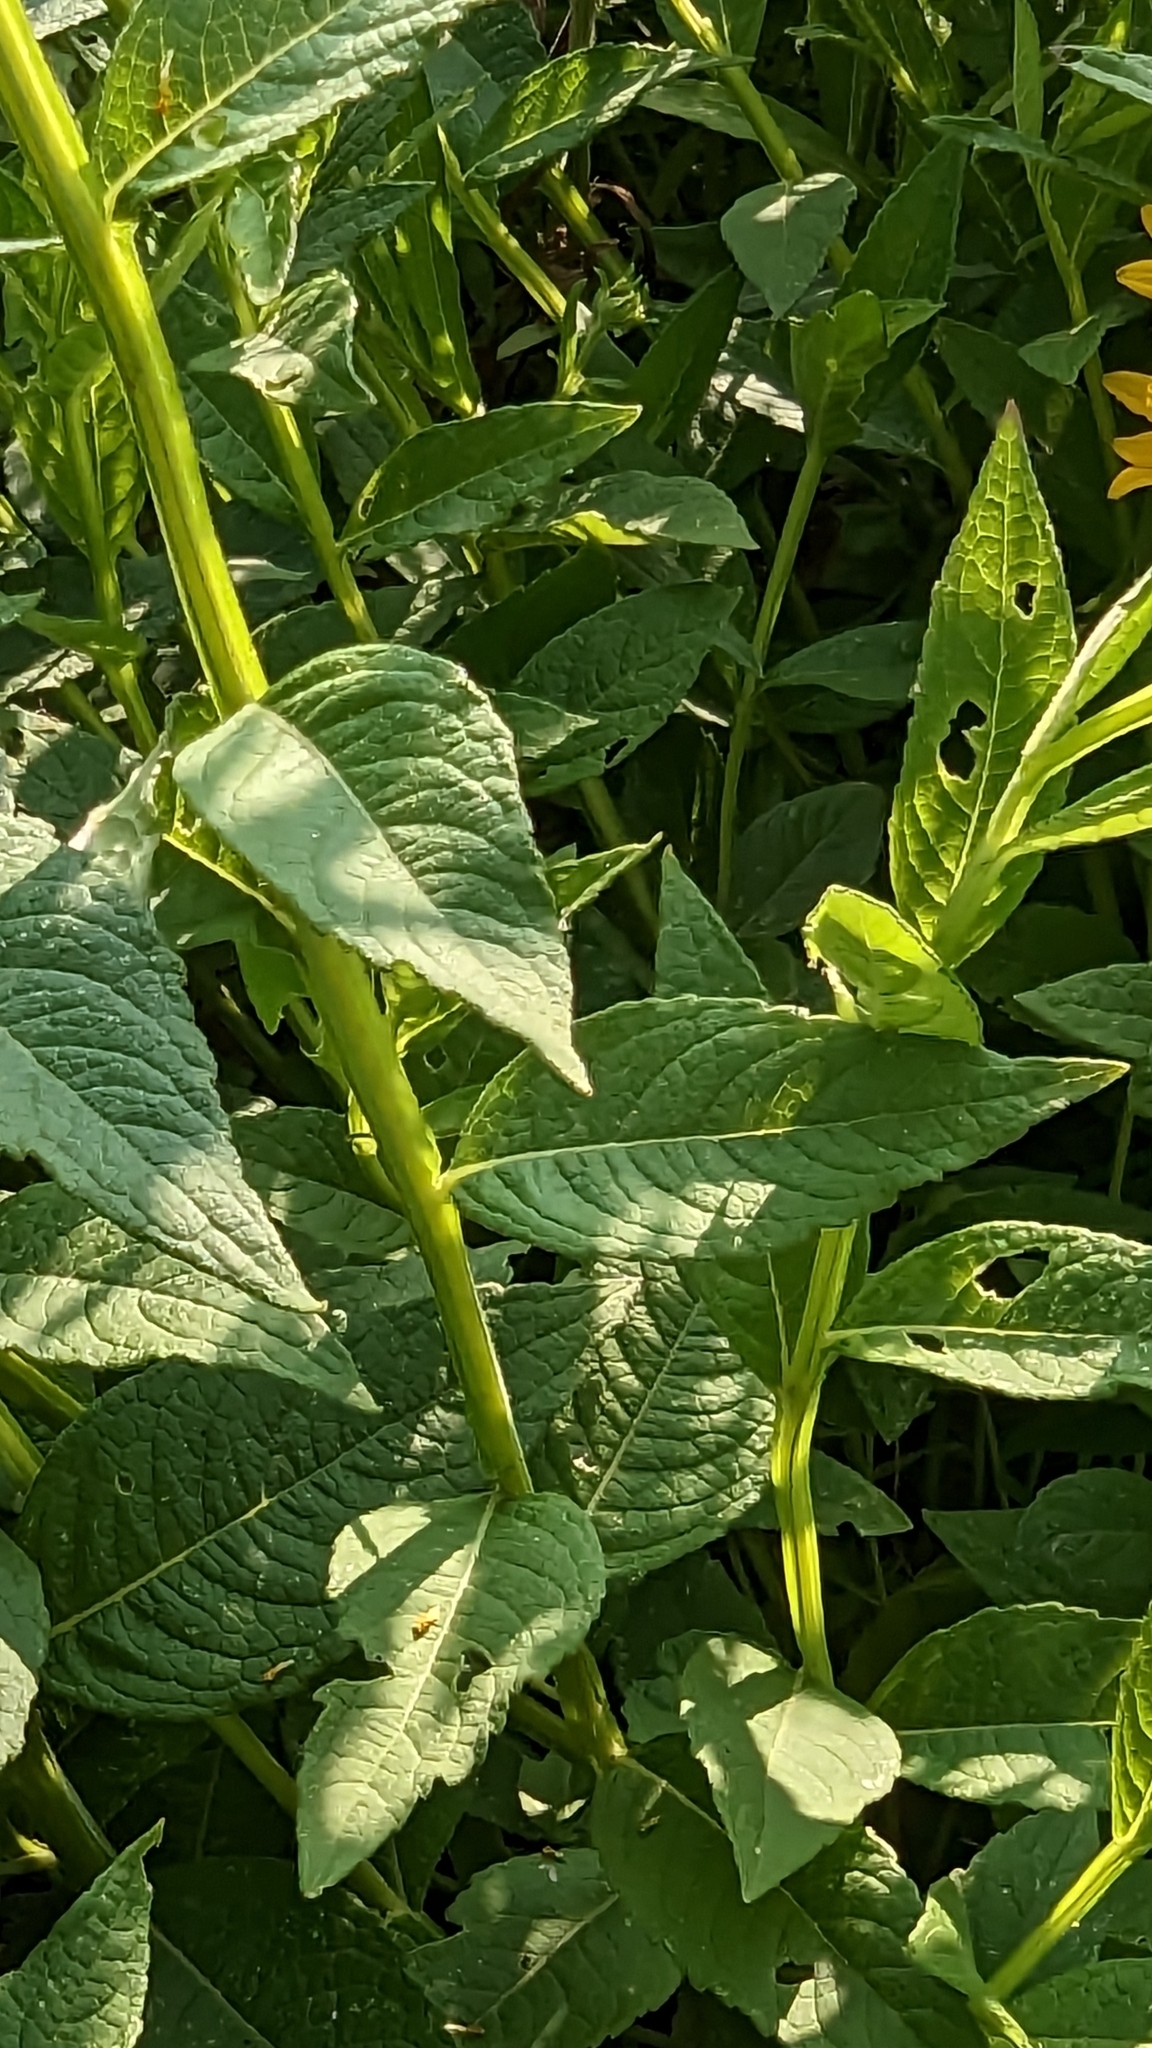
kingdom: Plantae
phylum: Tracheophyta
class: Magnoliopsida
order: Asterales
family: Asteraceae
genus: Verbesina
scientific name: Verbesina helianthoides
